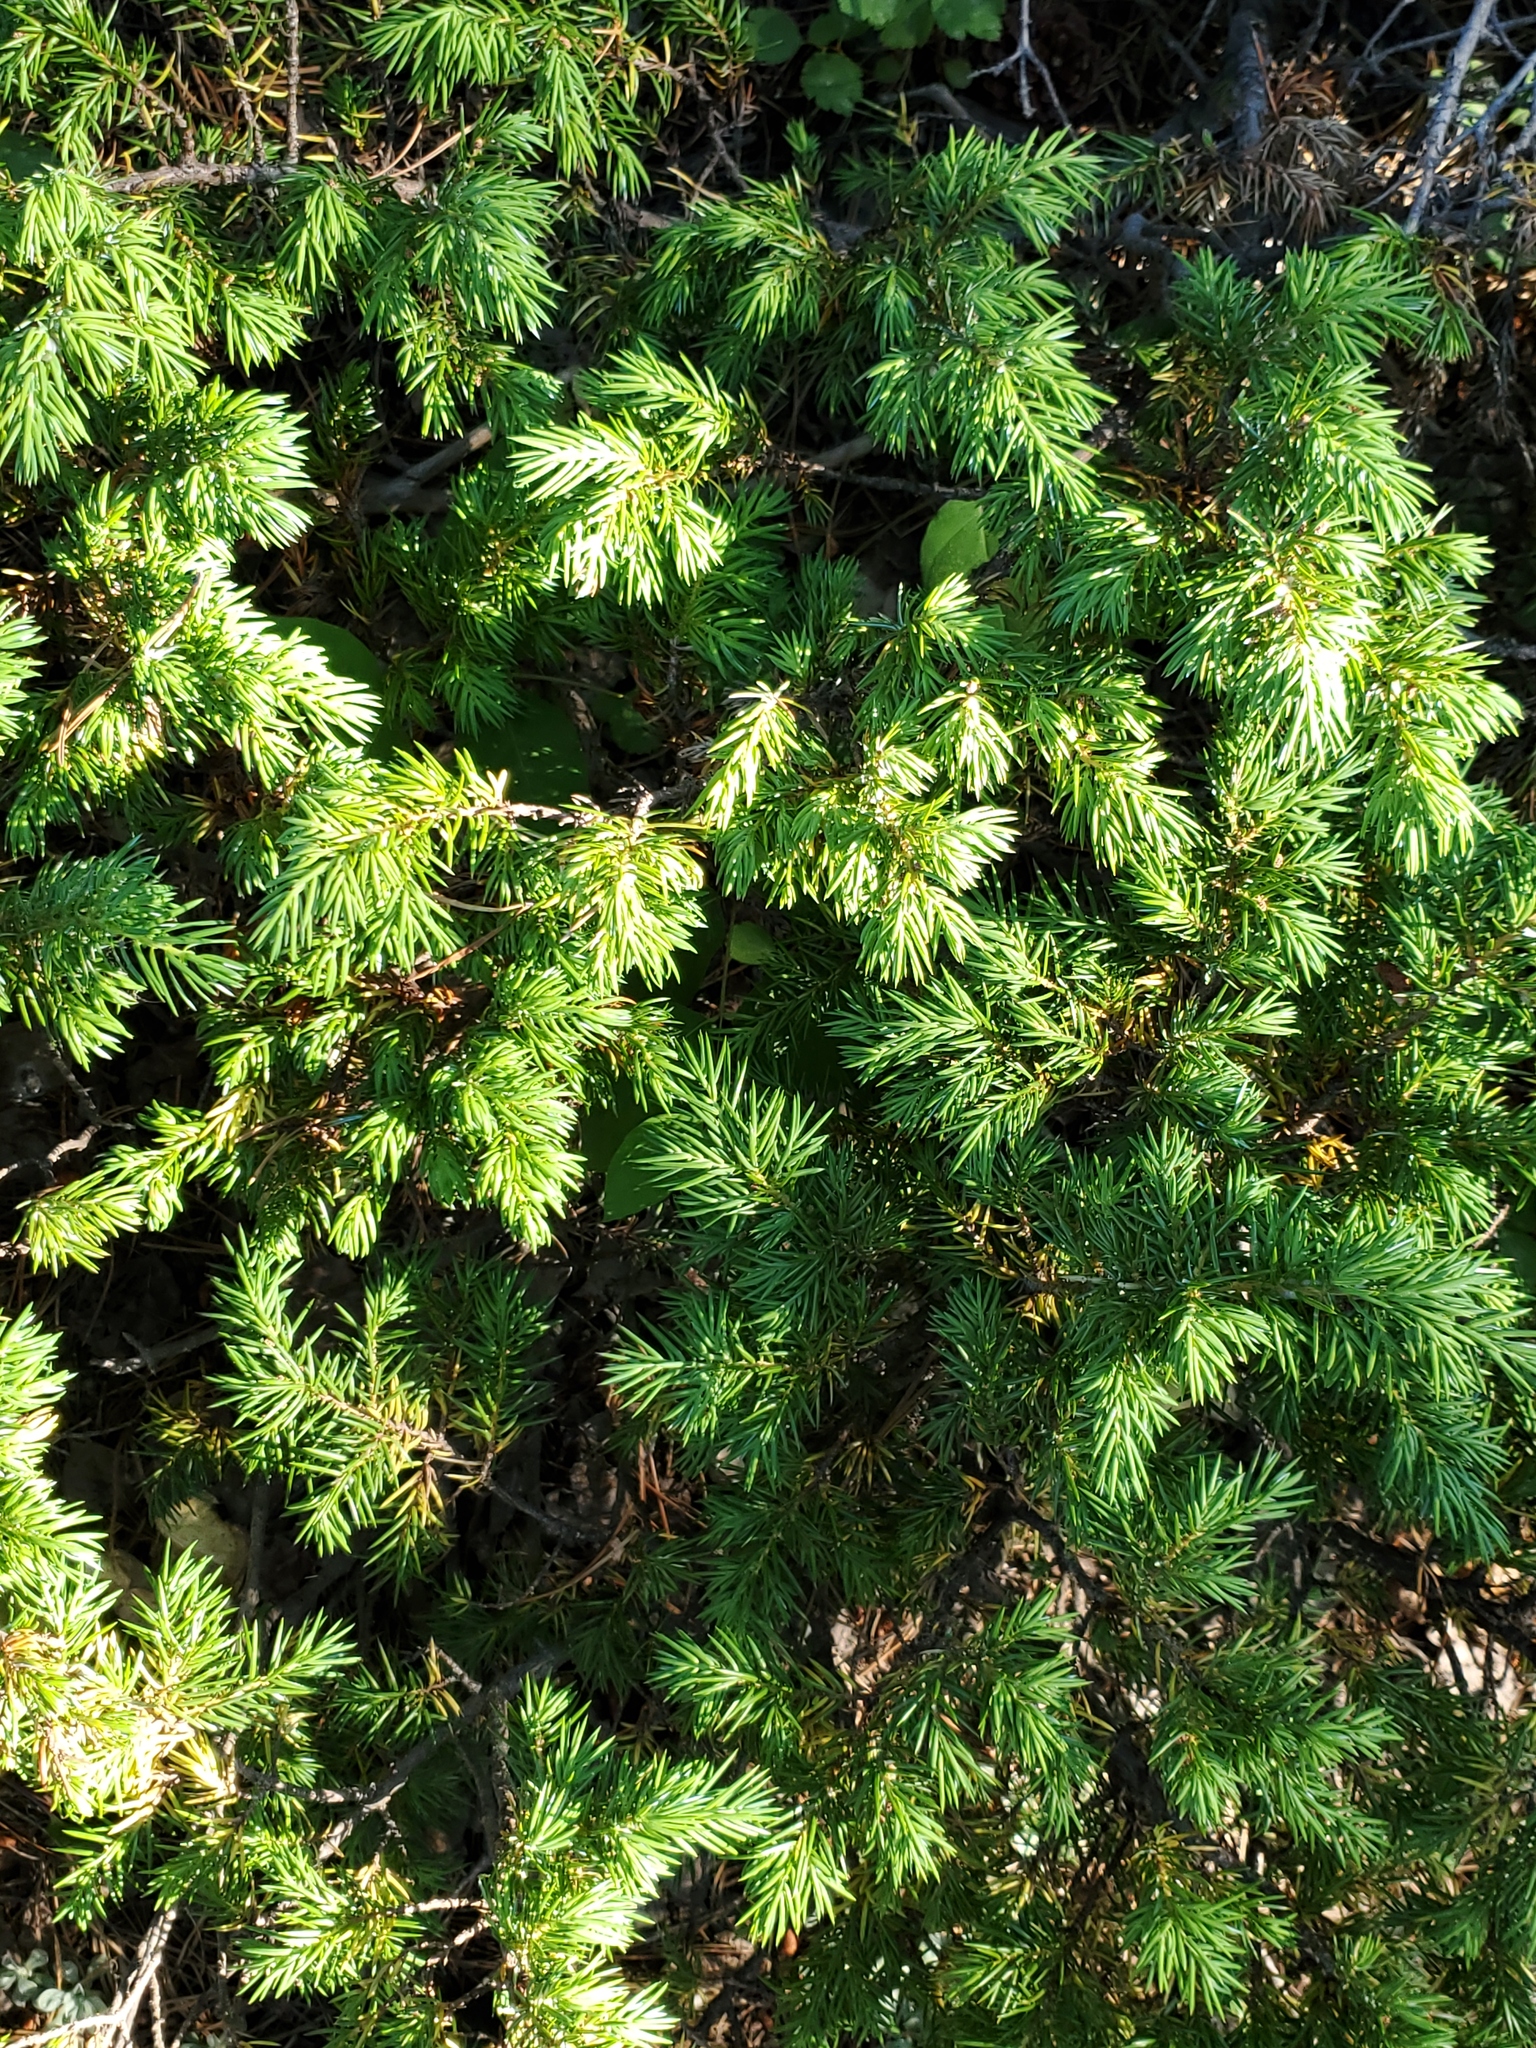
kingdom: Plantae
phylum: Tracheophyta
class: Pinopsida
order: Pinales
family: Cupressaceae
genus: Juniperus
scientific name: Juniperus communis
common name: Common juniper
